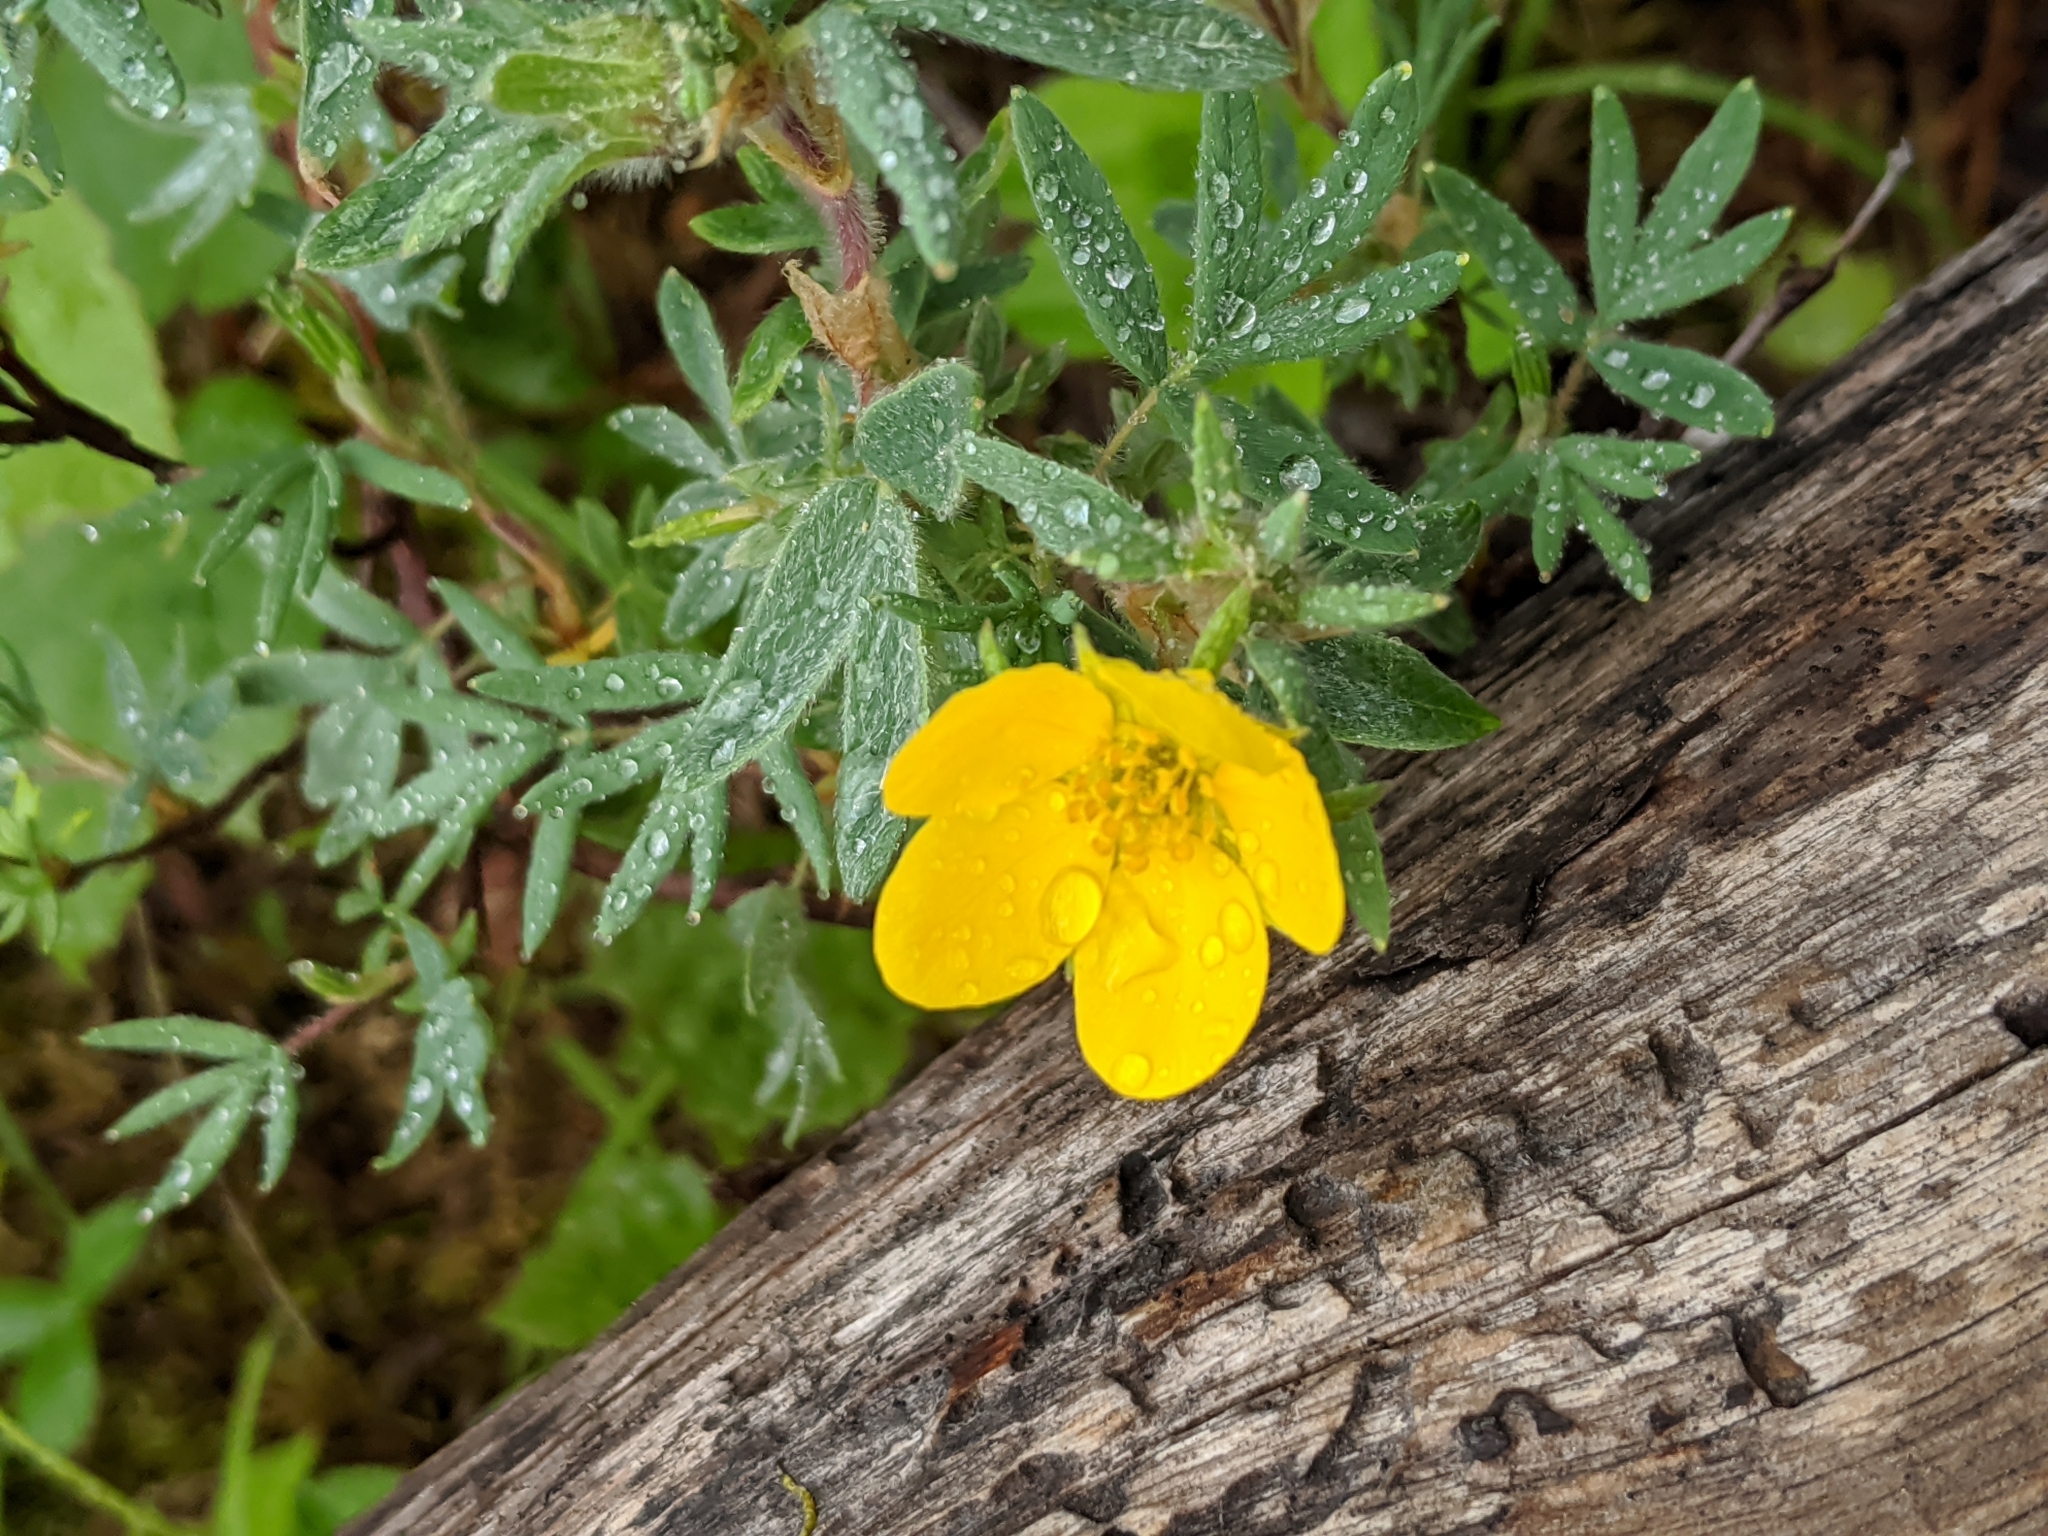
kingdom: Plantae
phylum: Tracheophyta
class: Magnoliopsida
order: Rosales
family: Rosaceae
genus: Dasiphora
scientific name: Dasiphora fruticosa
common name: Shrubby cinquefoil
